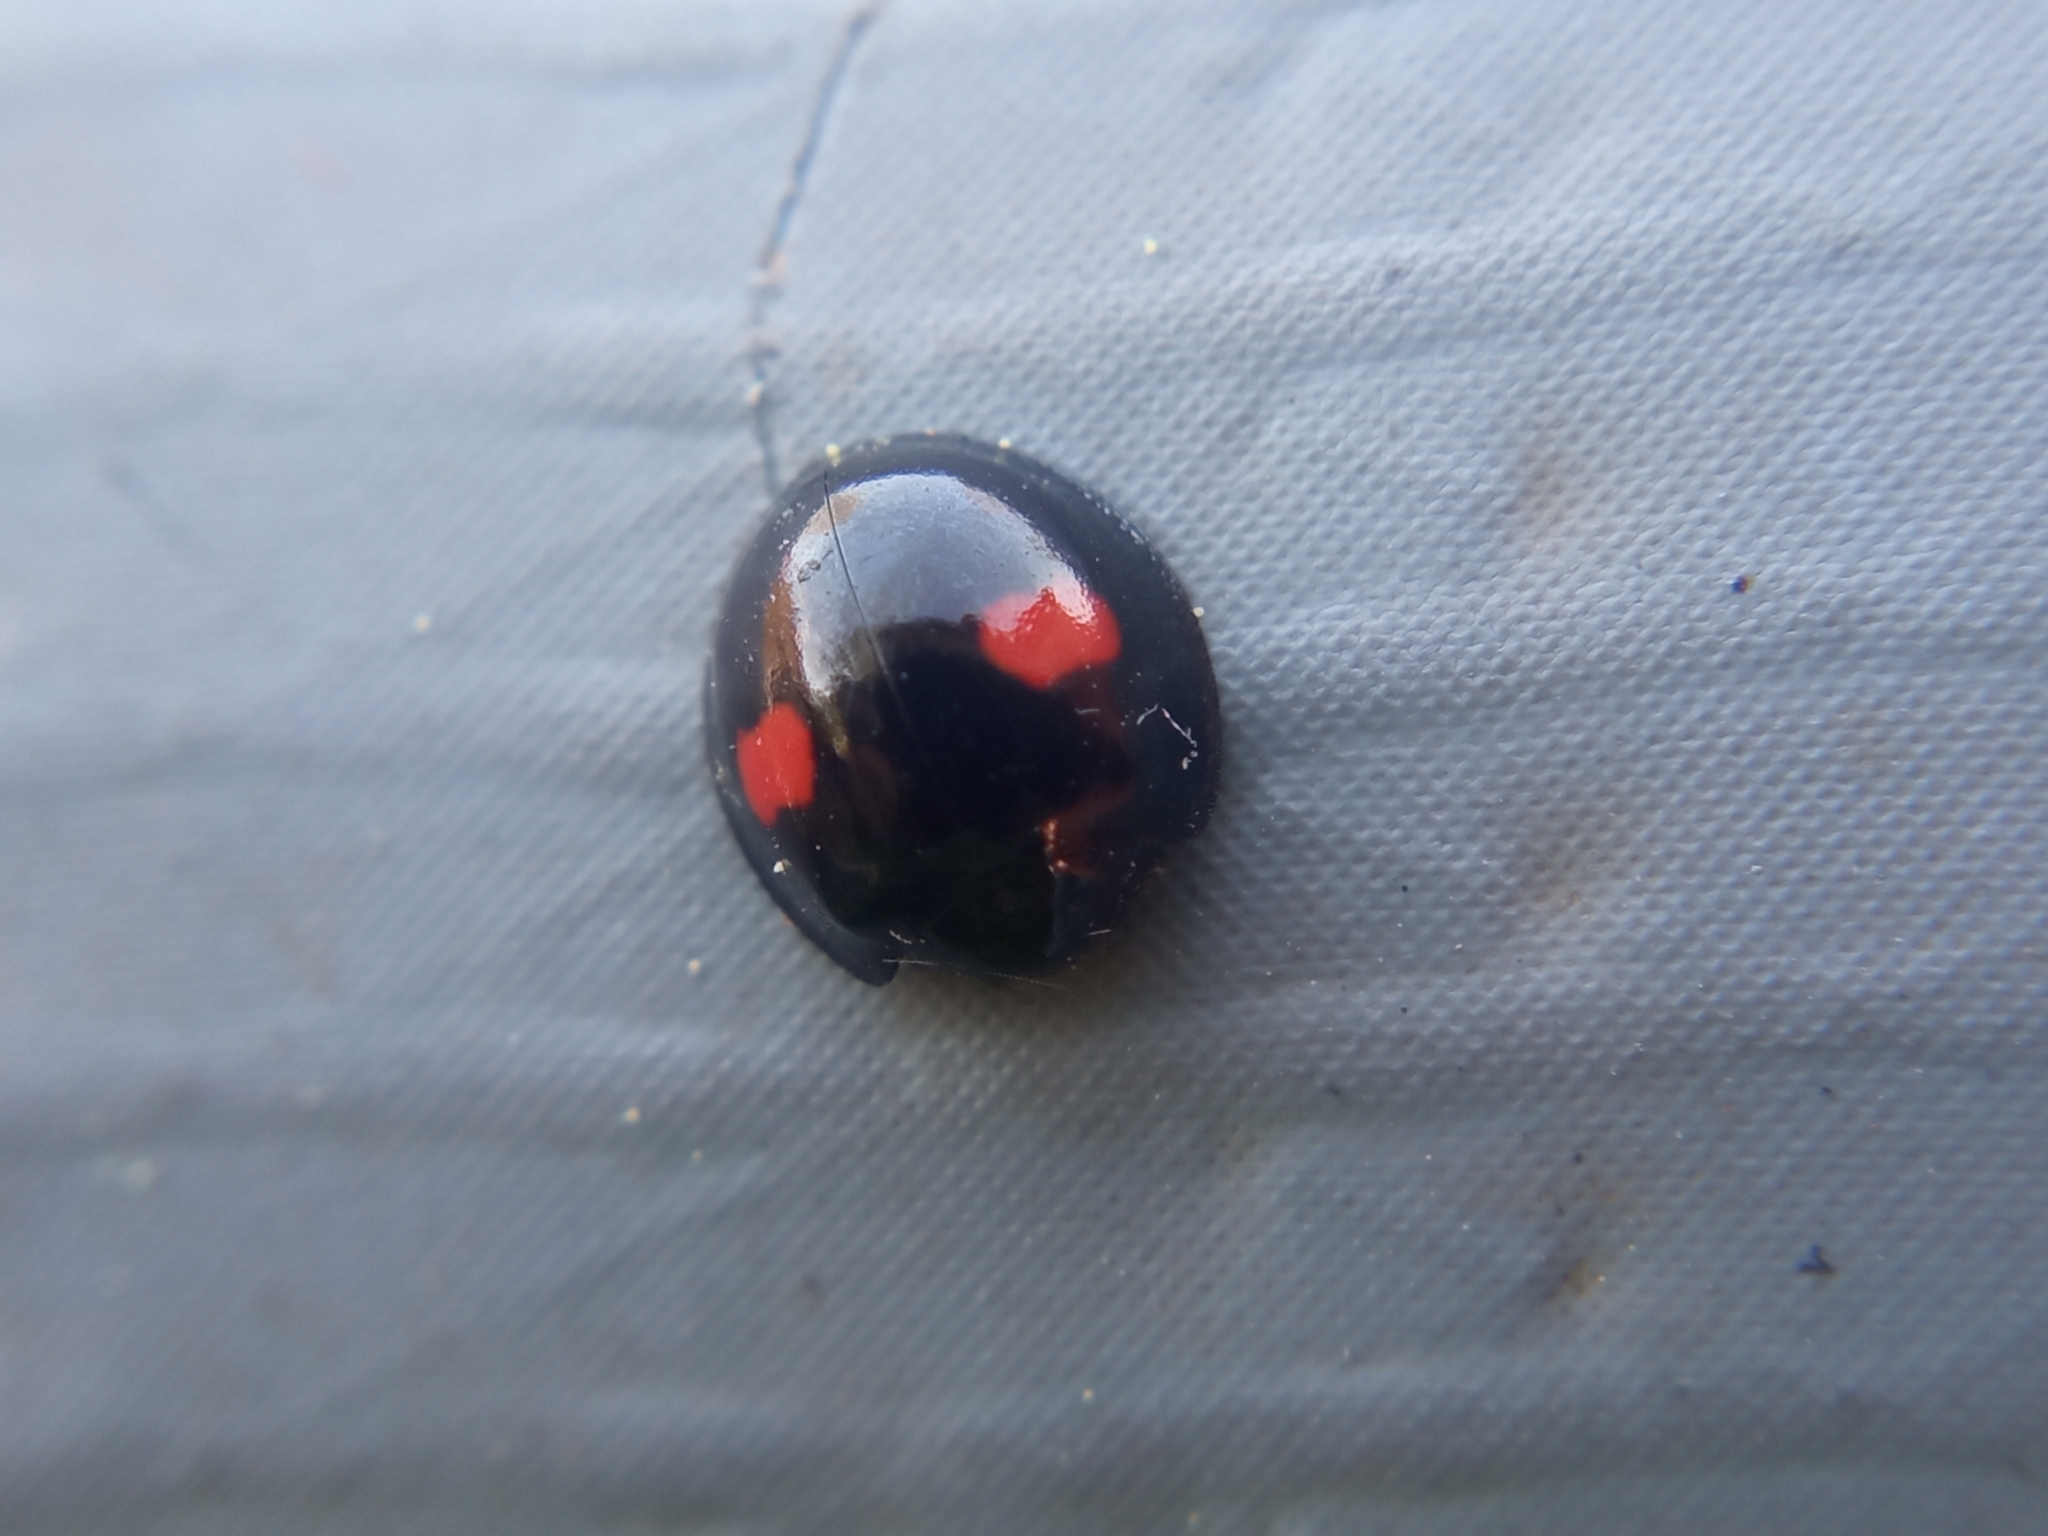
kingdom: Animalia
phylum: Arthropoda
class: Insecta
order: Coleoptera
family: Coccinellidae
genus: Chilocorus
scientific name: Chilocorus renipustulatus
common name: Kidney-spot ladybird
